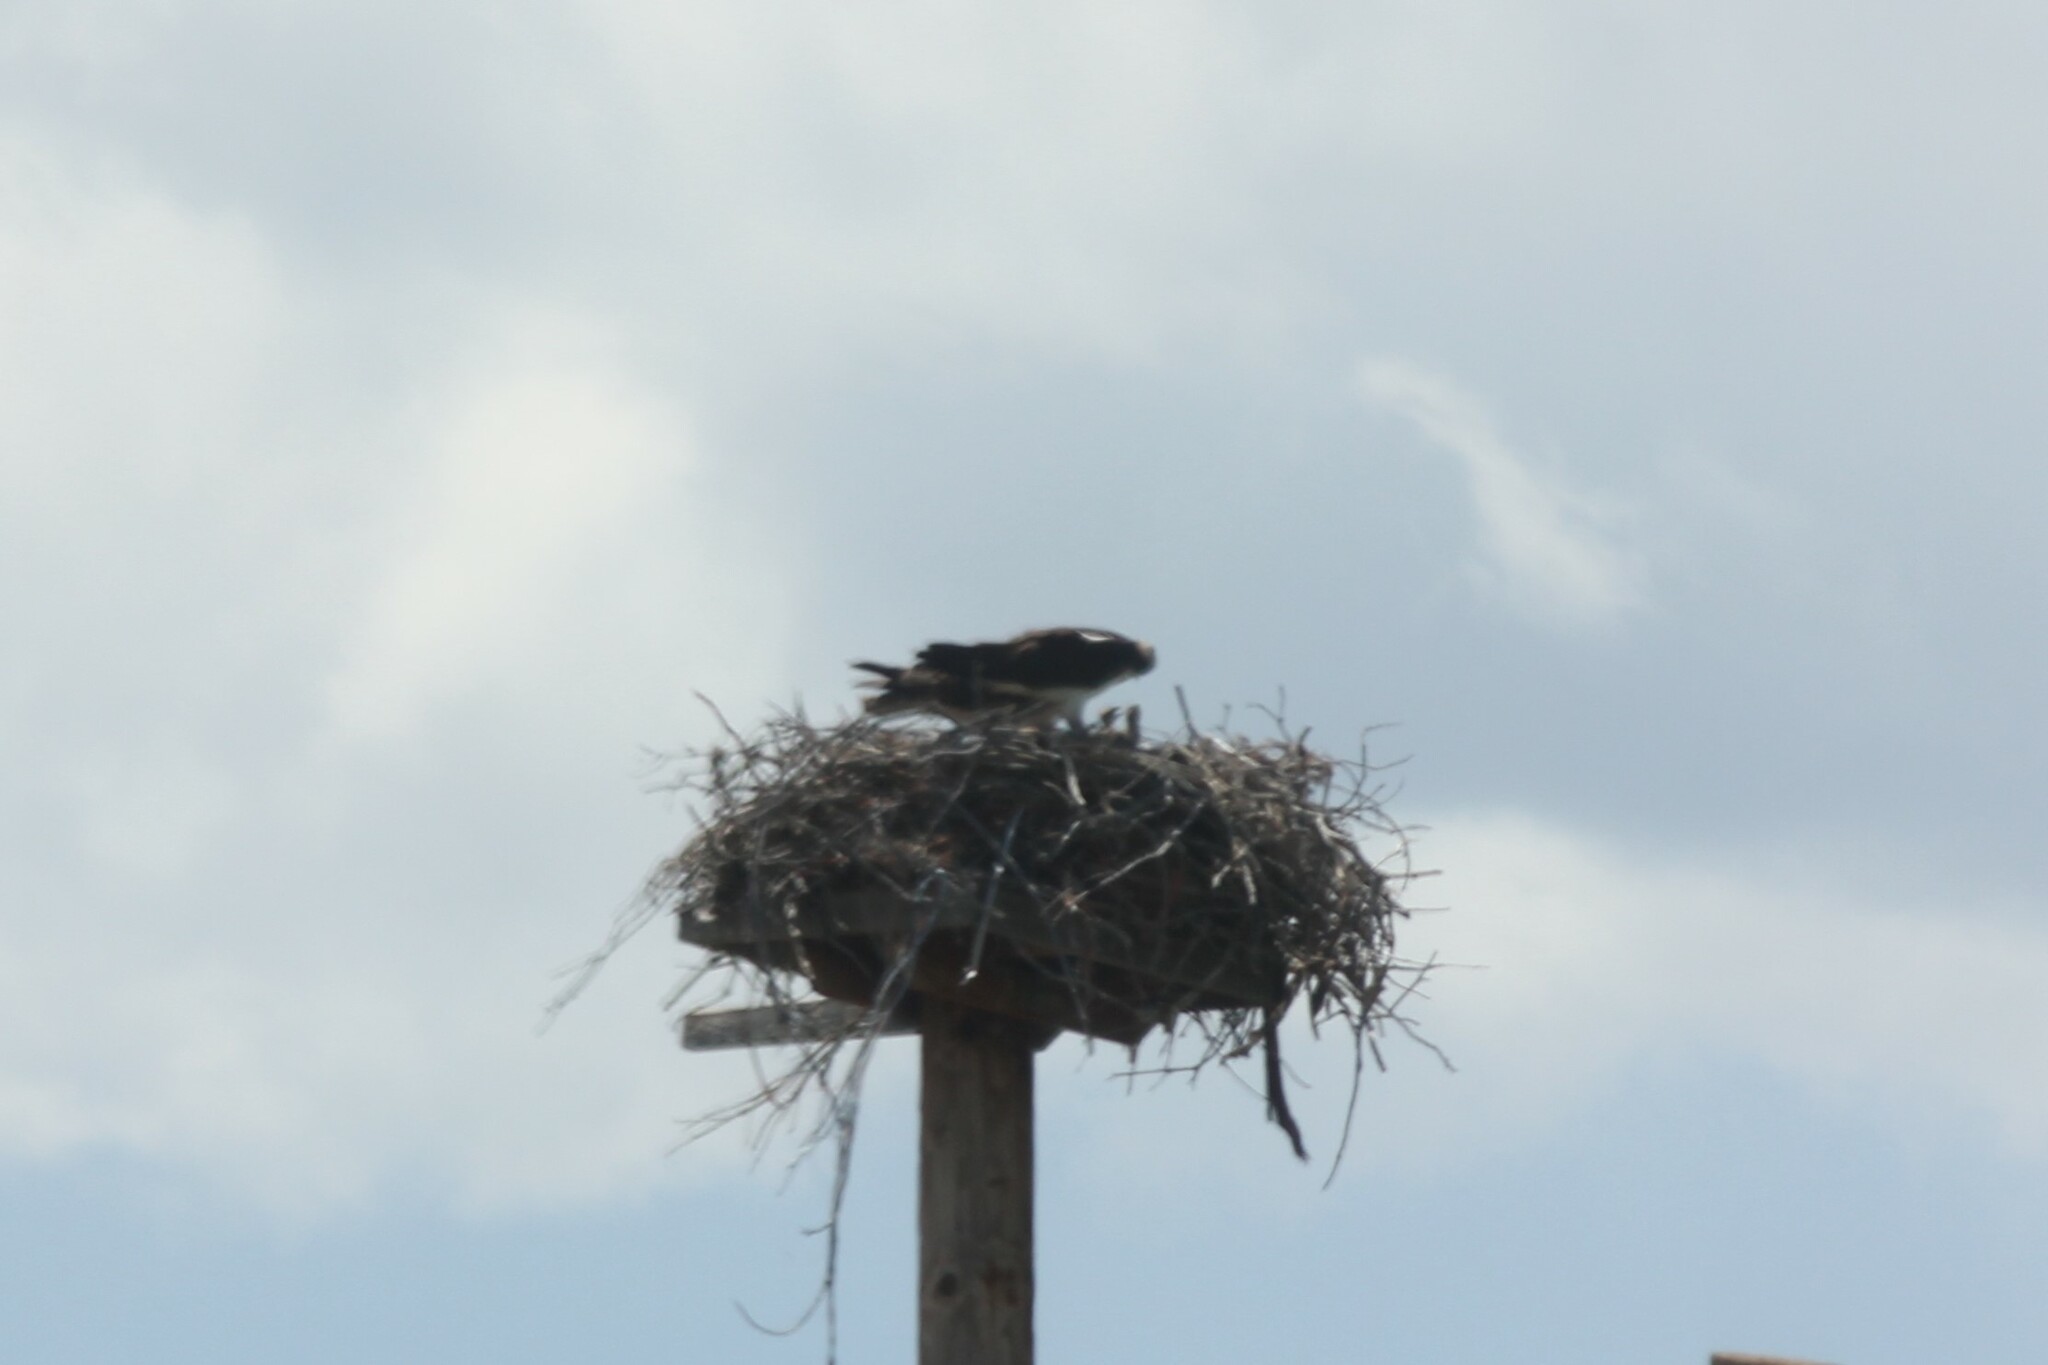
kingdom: Animalia
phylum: Chordata
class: Aves
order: Accipitriformes
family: Pandionidae
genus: Pandion
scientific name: Pandion haliaetus
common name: Osprey
